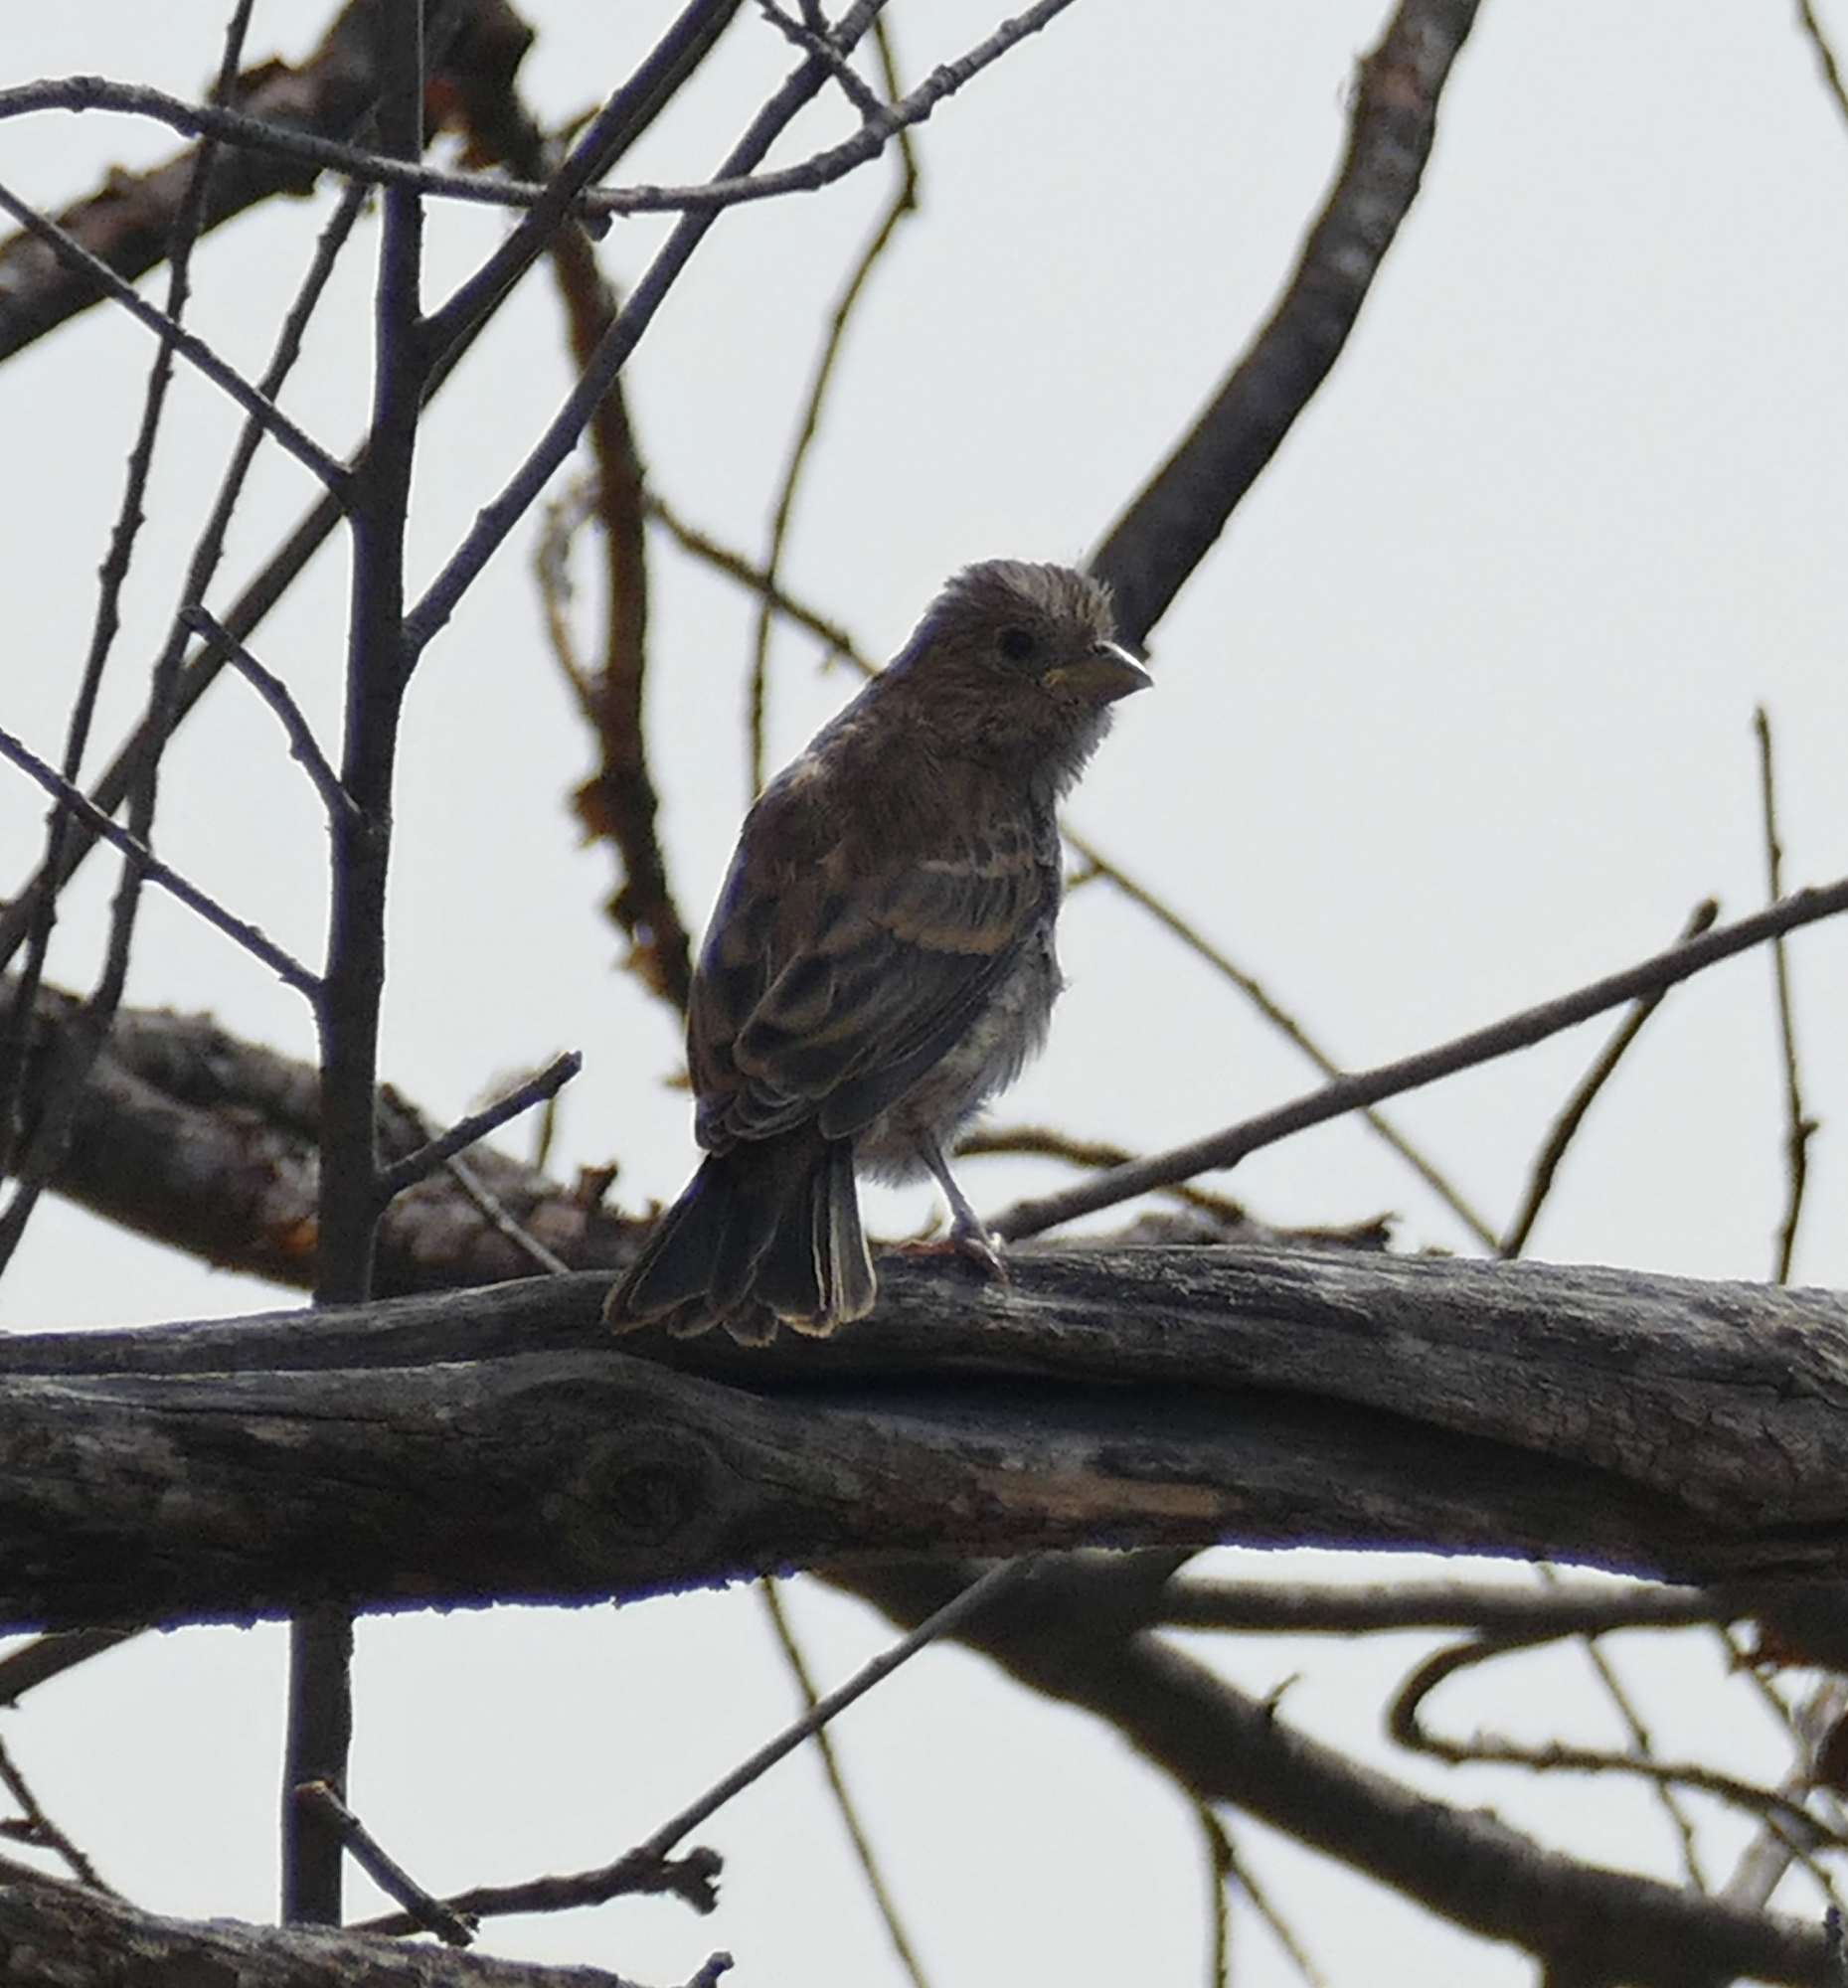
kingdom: Animalia
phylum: Chordata
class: Aves
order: Passeriformes
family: Fringillidae
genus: Haemorhous
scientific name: Haemorhous mexicanus
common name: House finch
